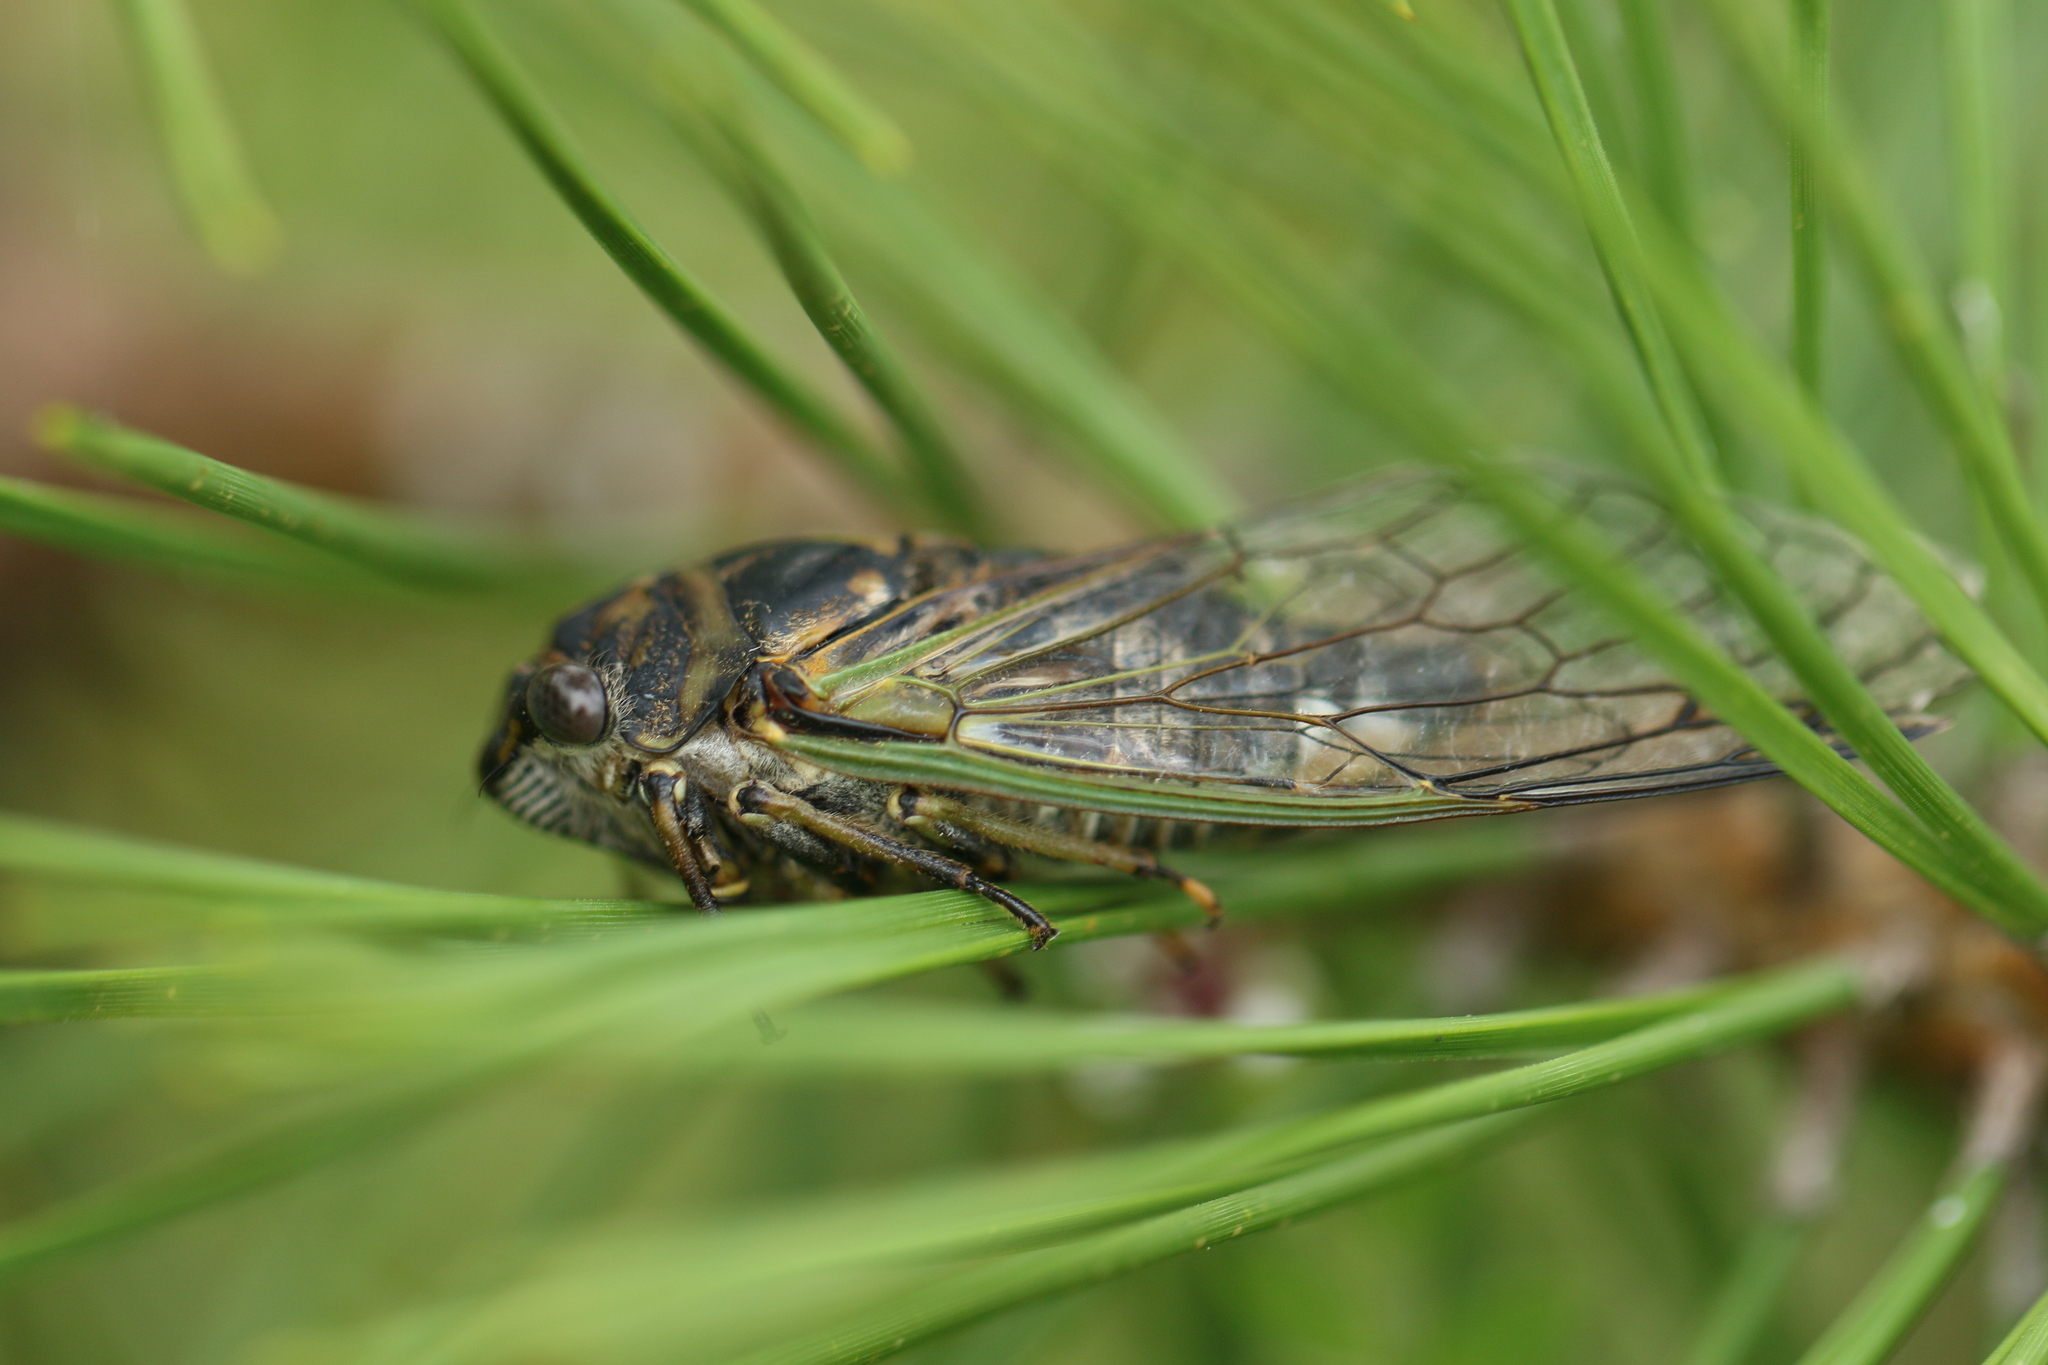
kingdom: Animalia
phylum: Arthropoda
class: Insecta
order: Hemiptera
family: Cicadidae
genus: Neotibicen
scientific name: Neotibicen canicularis
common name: God-day cicada
